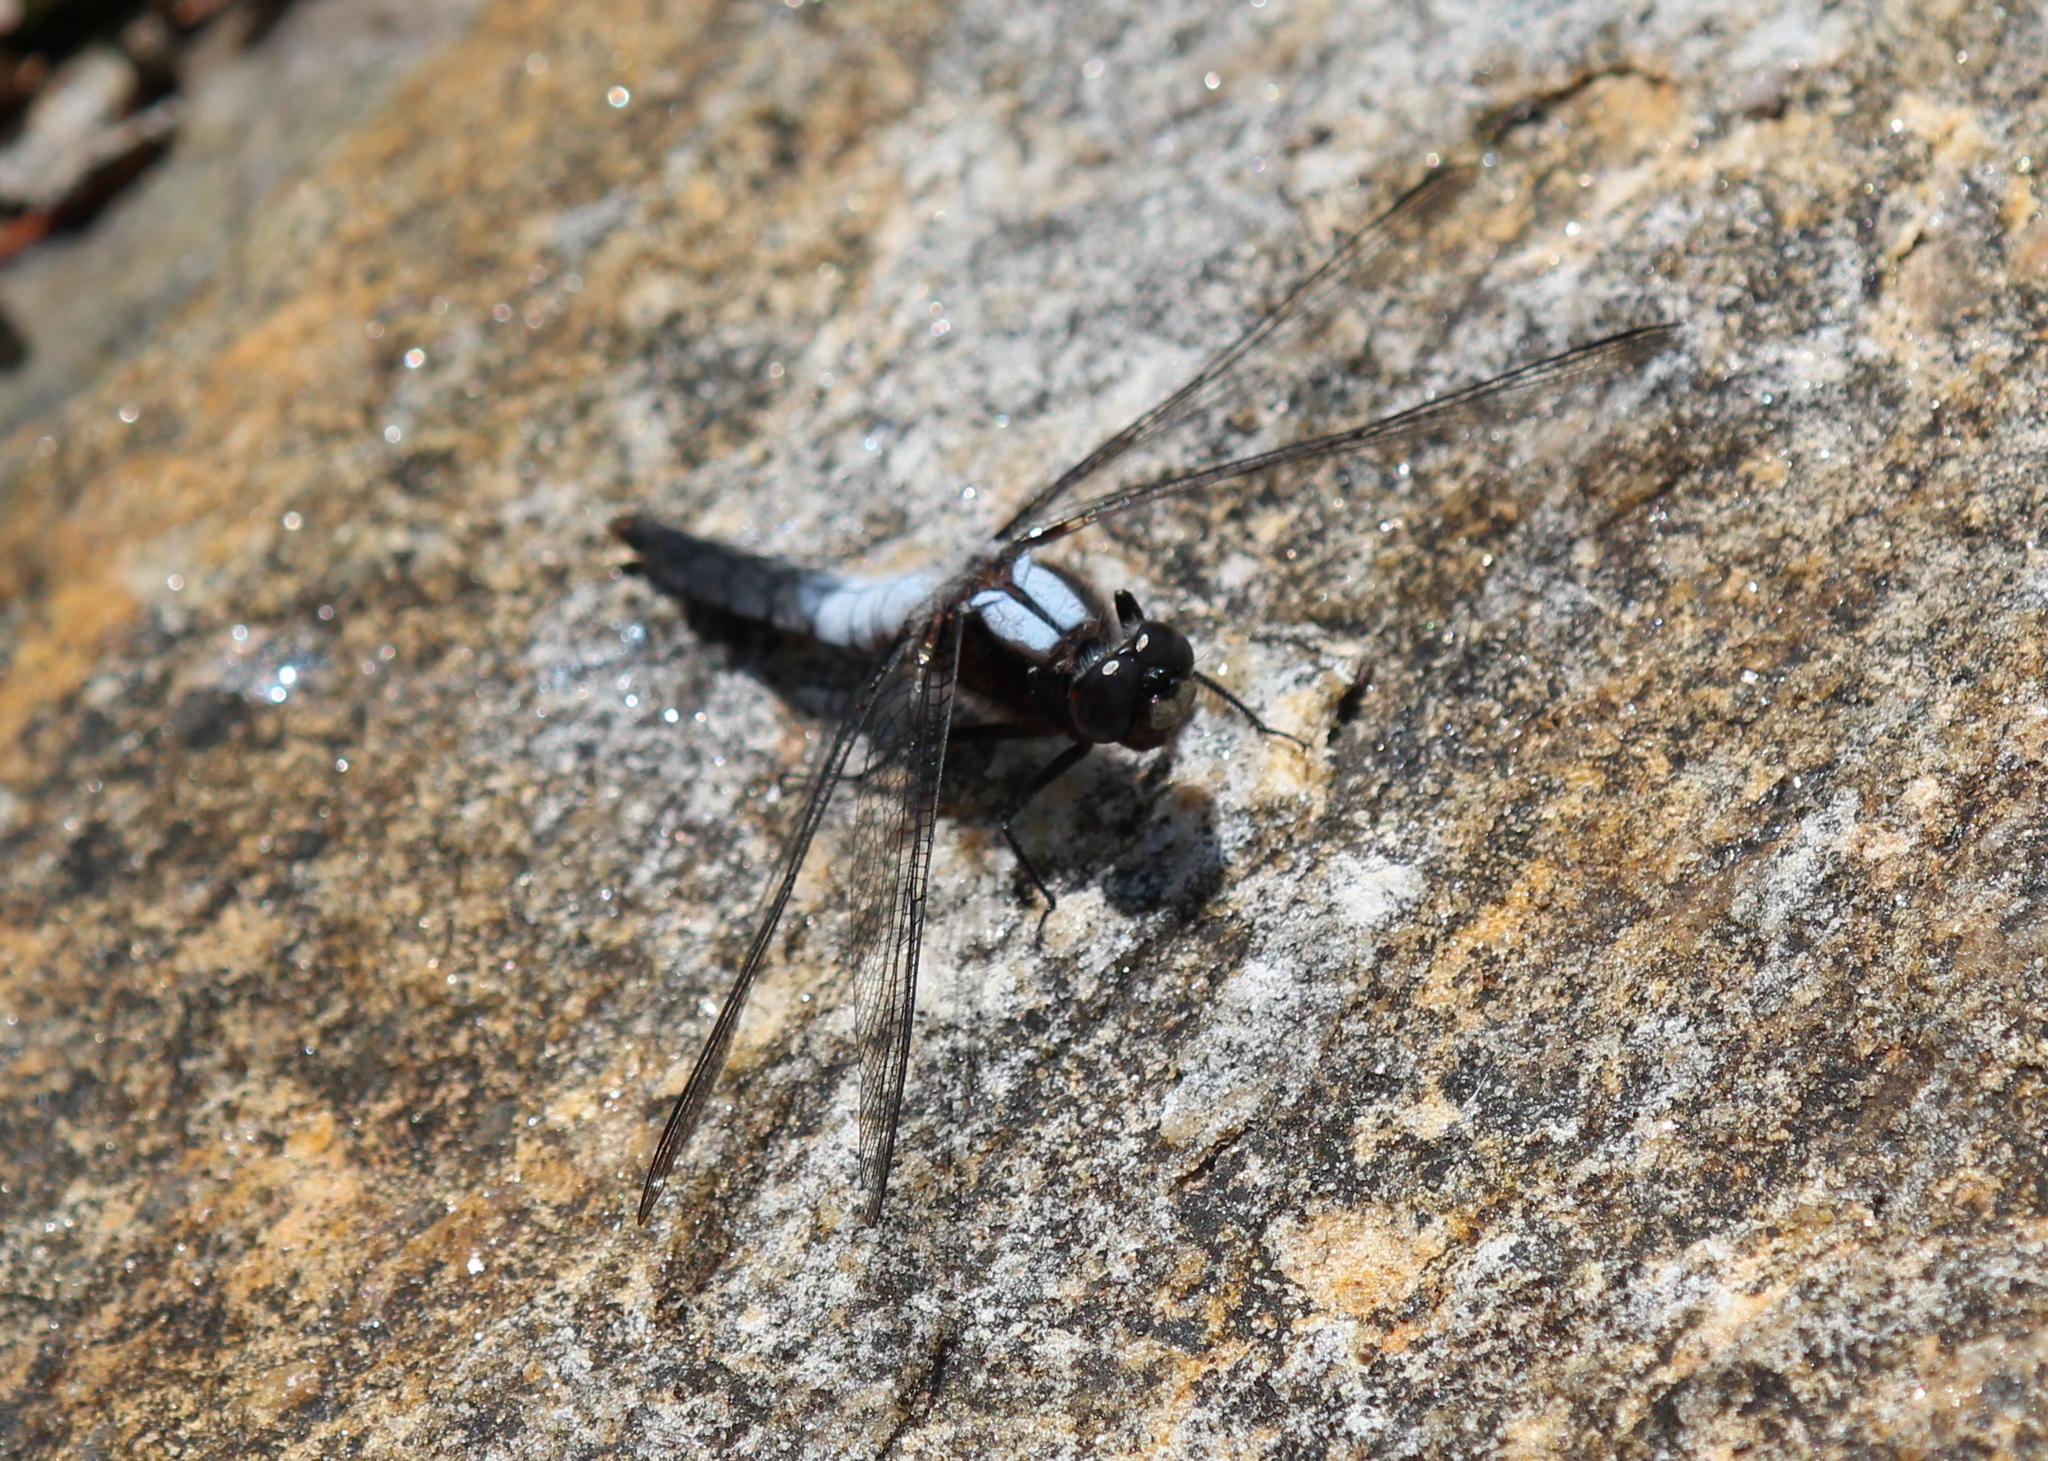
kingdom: Animalia
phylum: Arthropoda
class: Insecta
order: Odonata
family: Libellulidae
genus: Ladona
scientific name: Ladona julia
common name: Chalk-fronted corporal
